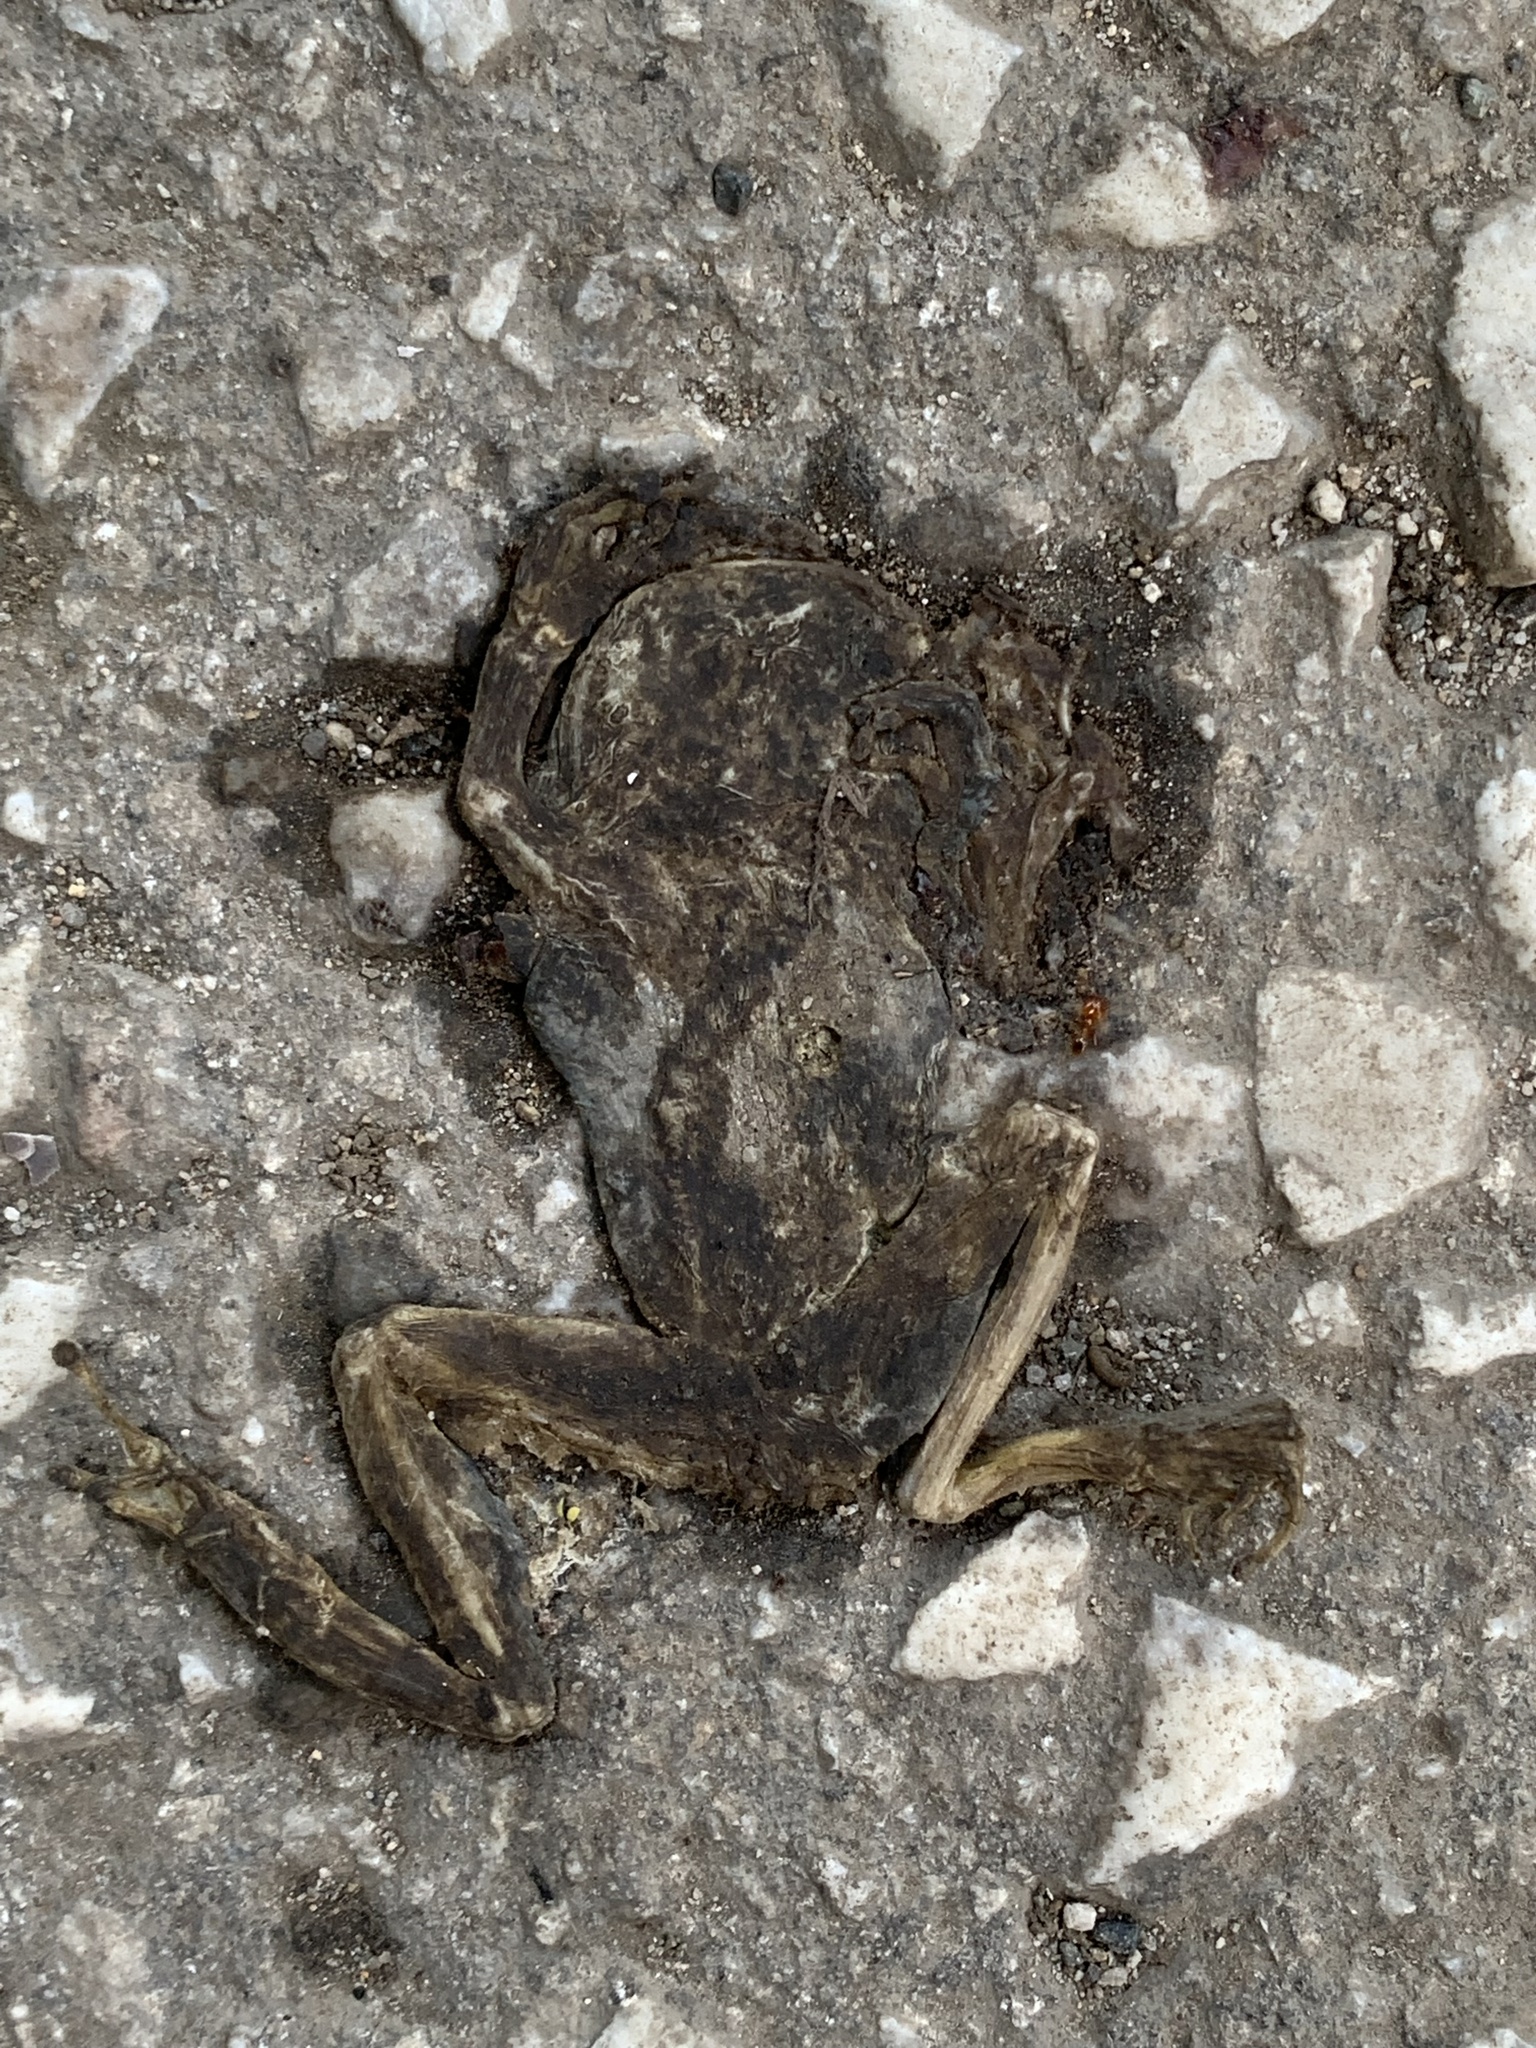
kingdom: Animalia
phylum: Chordata
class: Amphibia
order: Anura
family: Bufonidae
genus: Bufo
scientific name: Bufo bufo
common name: Common toad
